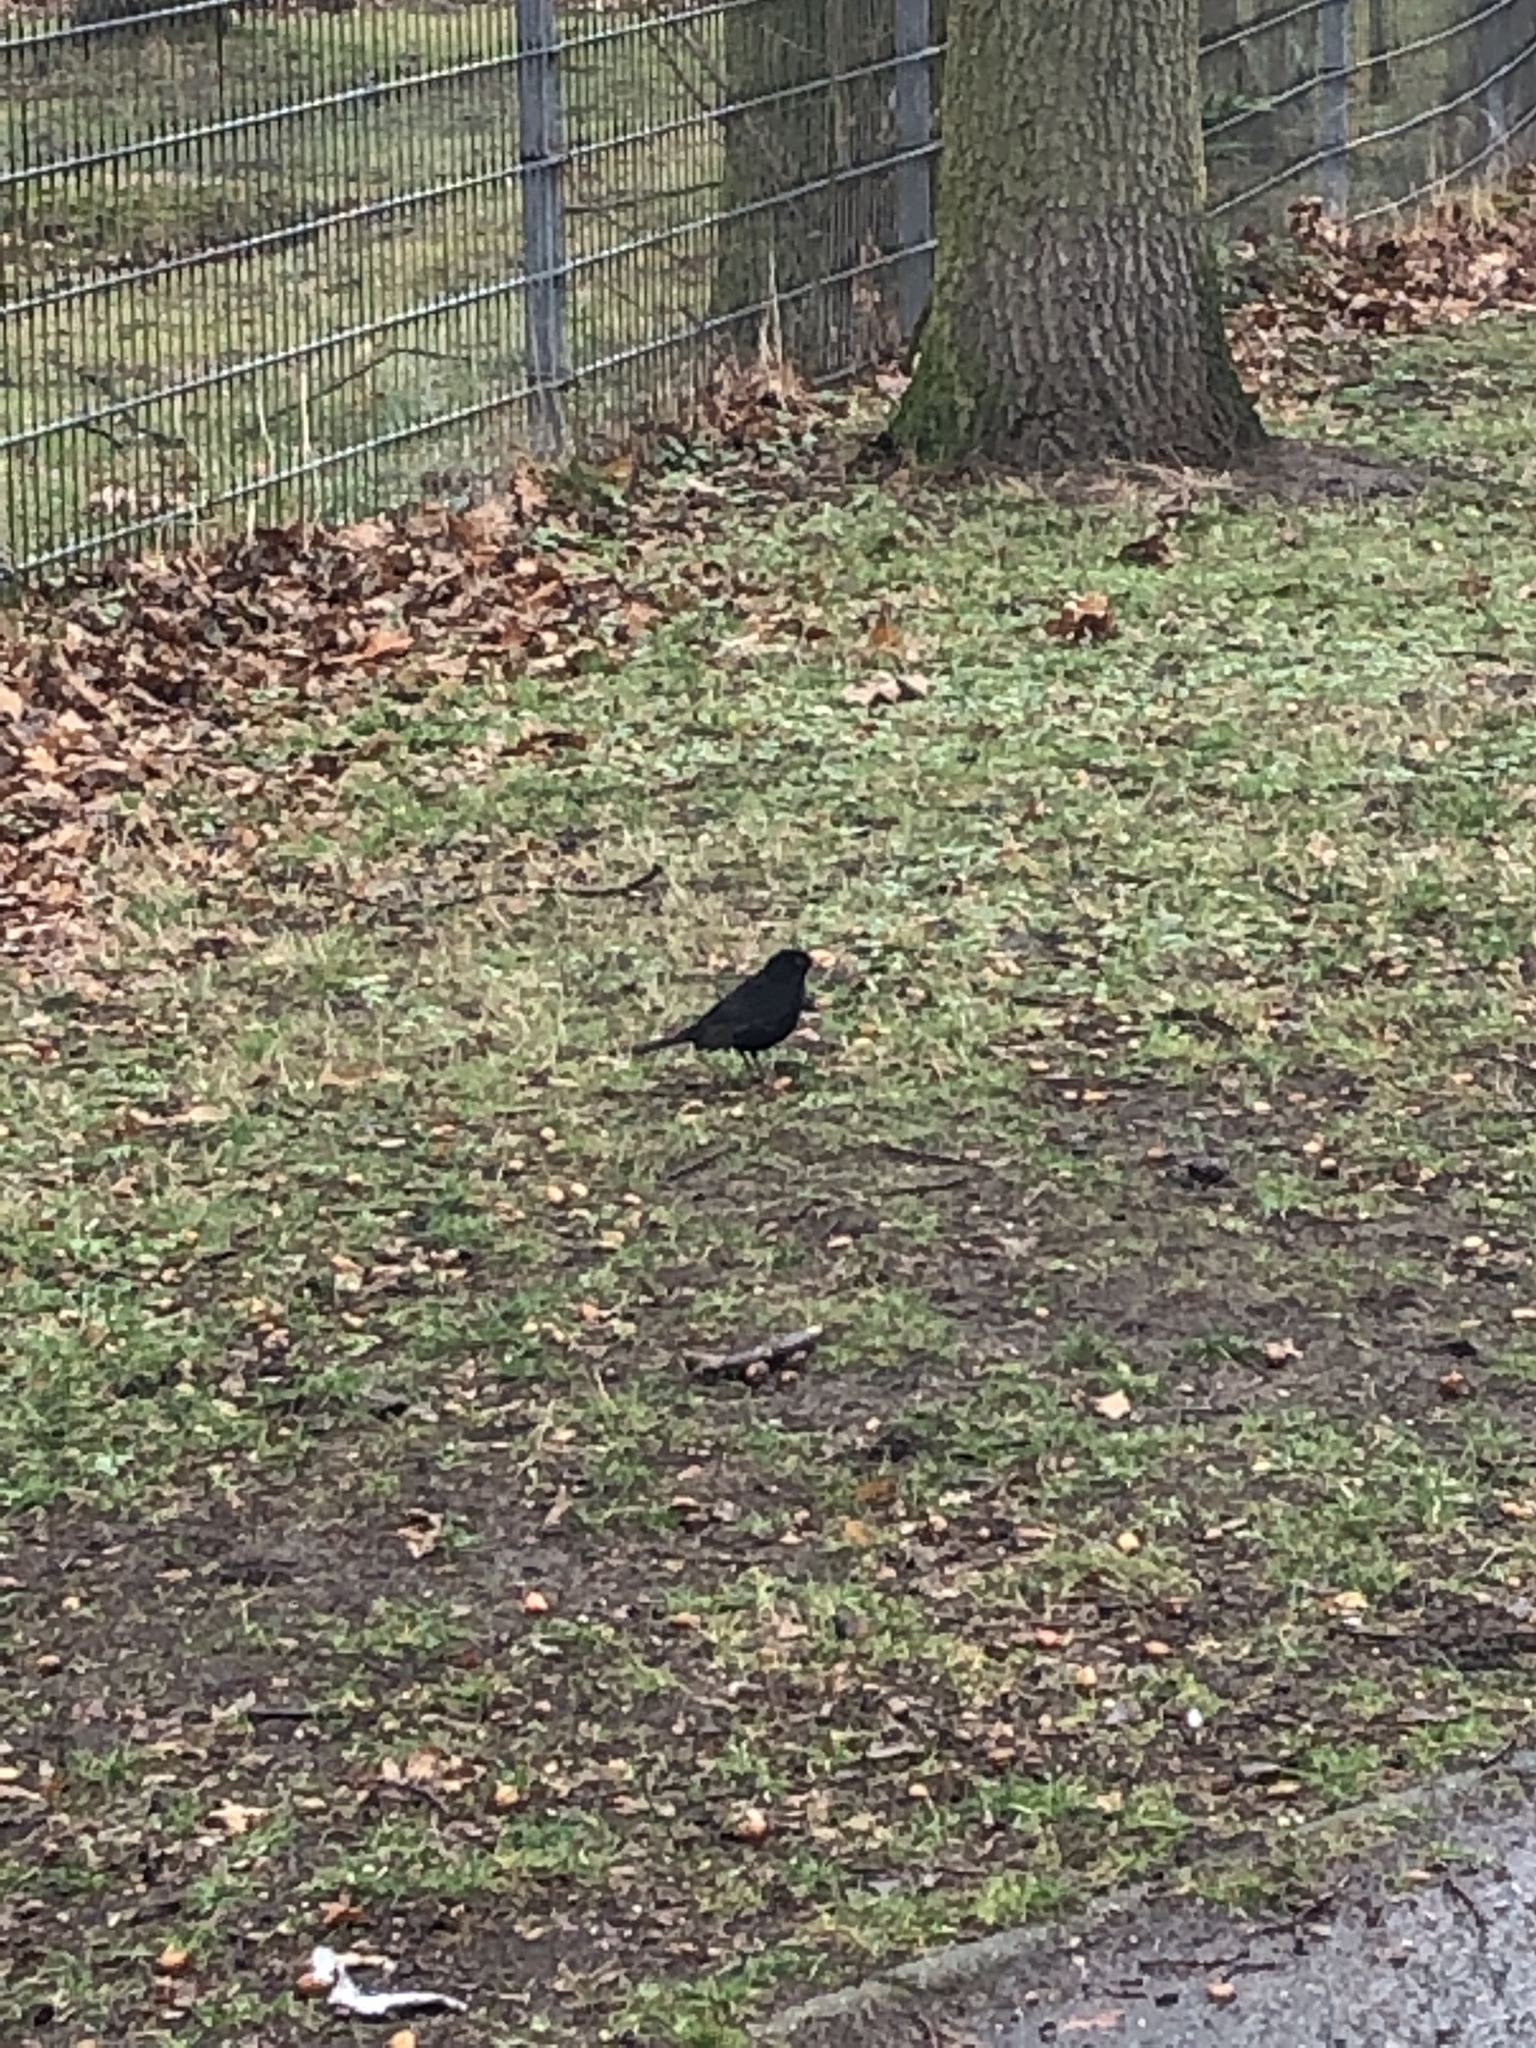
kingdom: Animalia
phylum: Chordata
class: Aves
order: Passeriformes
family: Turdidae
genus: Turdus
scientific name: Turdus merula
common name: Common blackbird
